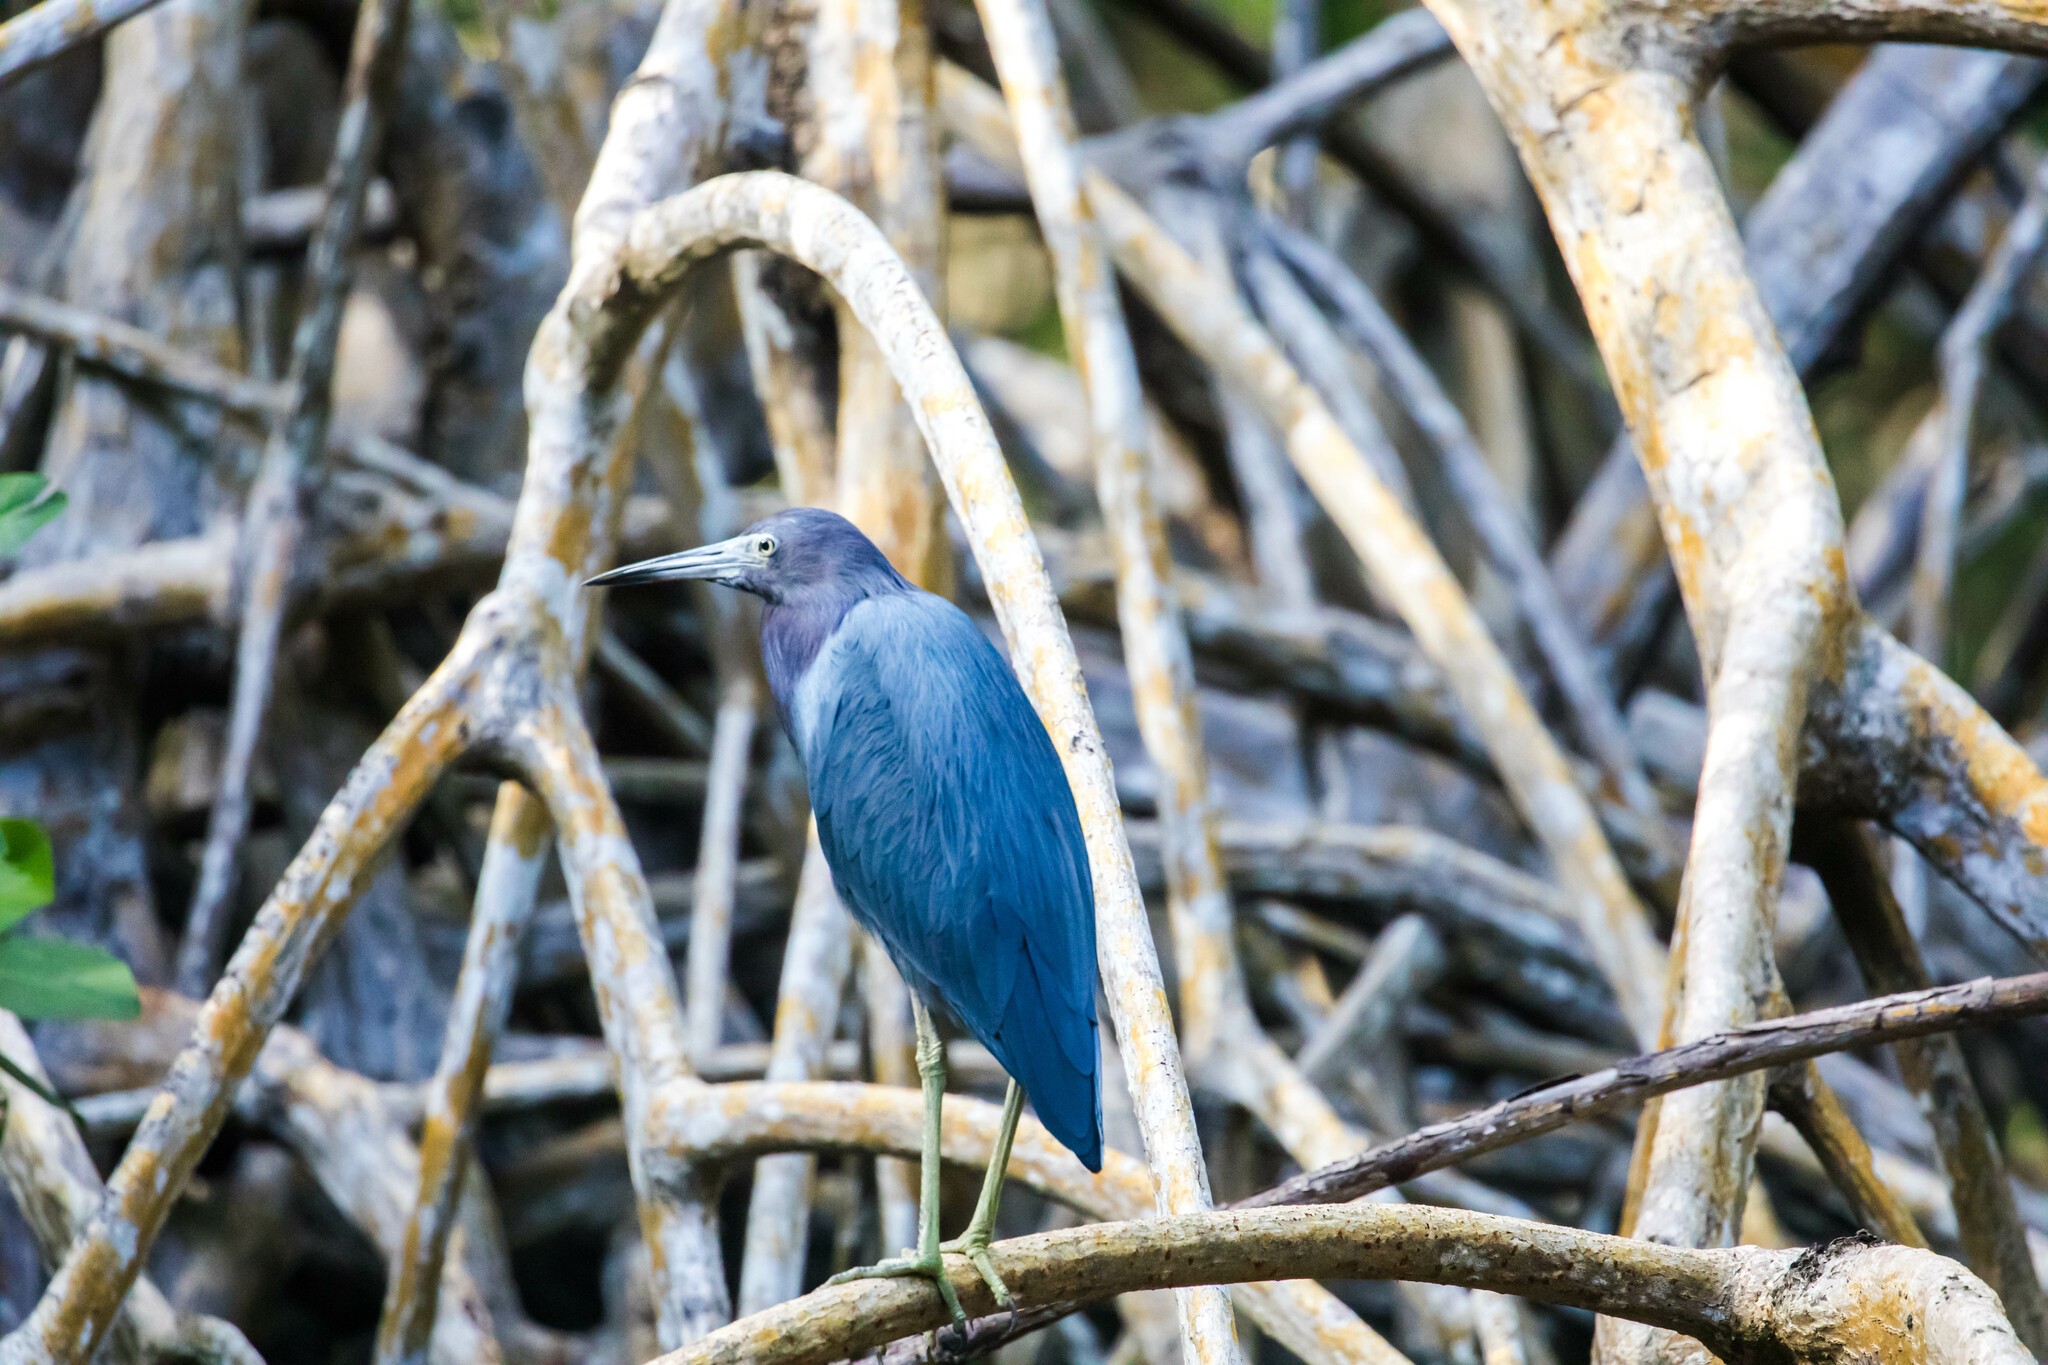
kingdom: Animalia
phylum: Chordata
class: Aves
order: Pelecaniformes
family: Ardeidae
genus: Egretta
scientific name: Egretta caerulea
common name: Little blue heron
